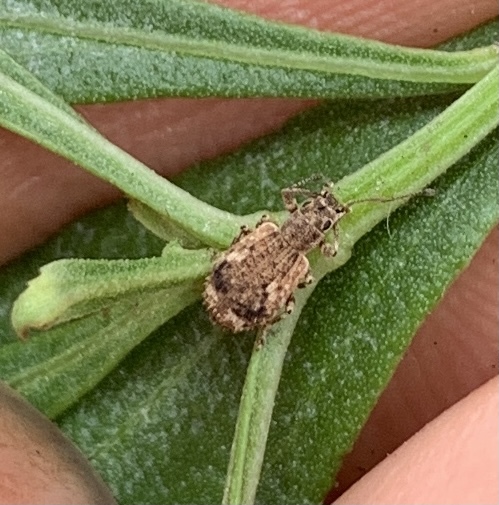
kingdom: Animalia
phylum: Arthropoda
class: Insecta
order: Coleoptera
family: Curculionidae
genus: Pseudoedophrys
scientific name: Pseudoedophrys hilleri
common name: Weevil
